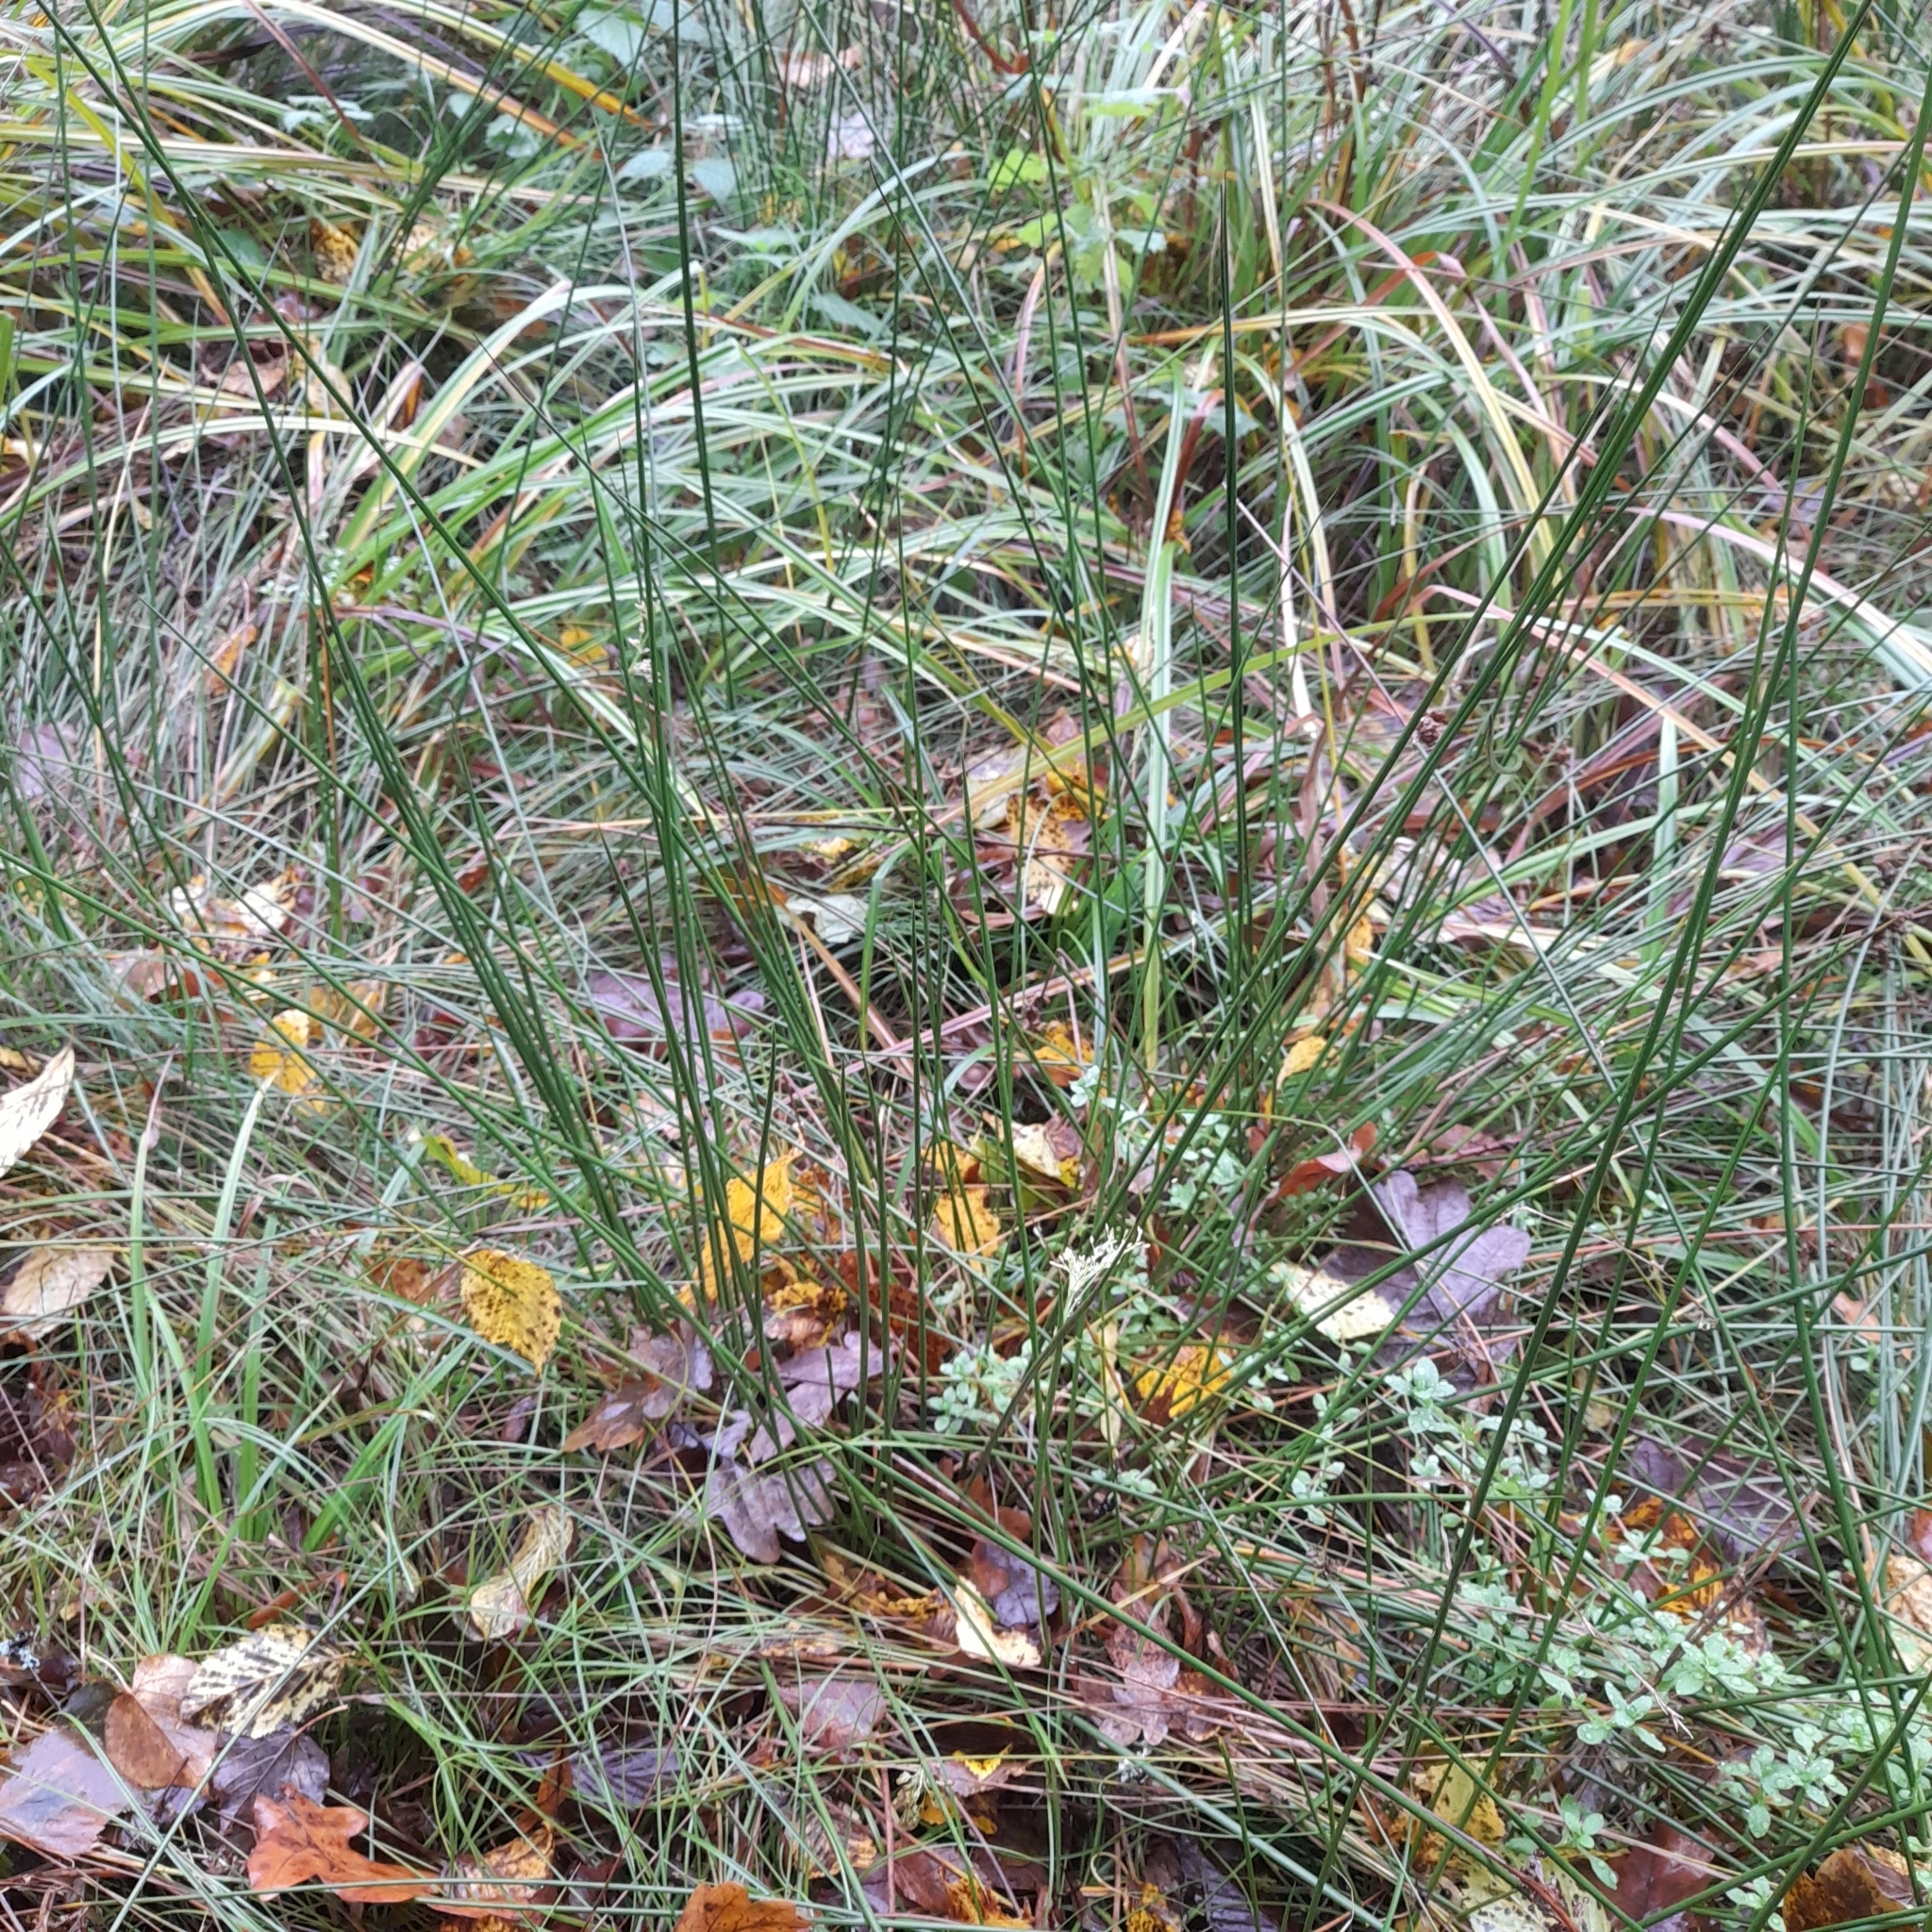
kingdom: Plantae
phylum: Tracheophyta
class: Liliopsida
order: Poales
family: Juncaceae
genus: Juncus
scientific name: Juncus effusus
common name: Soft rush
